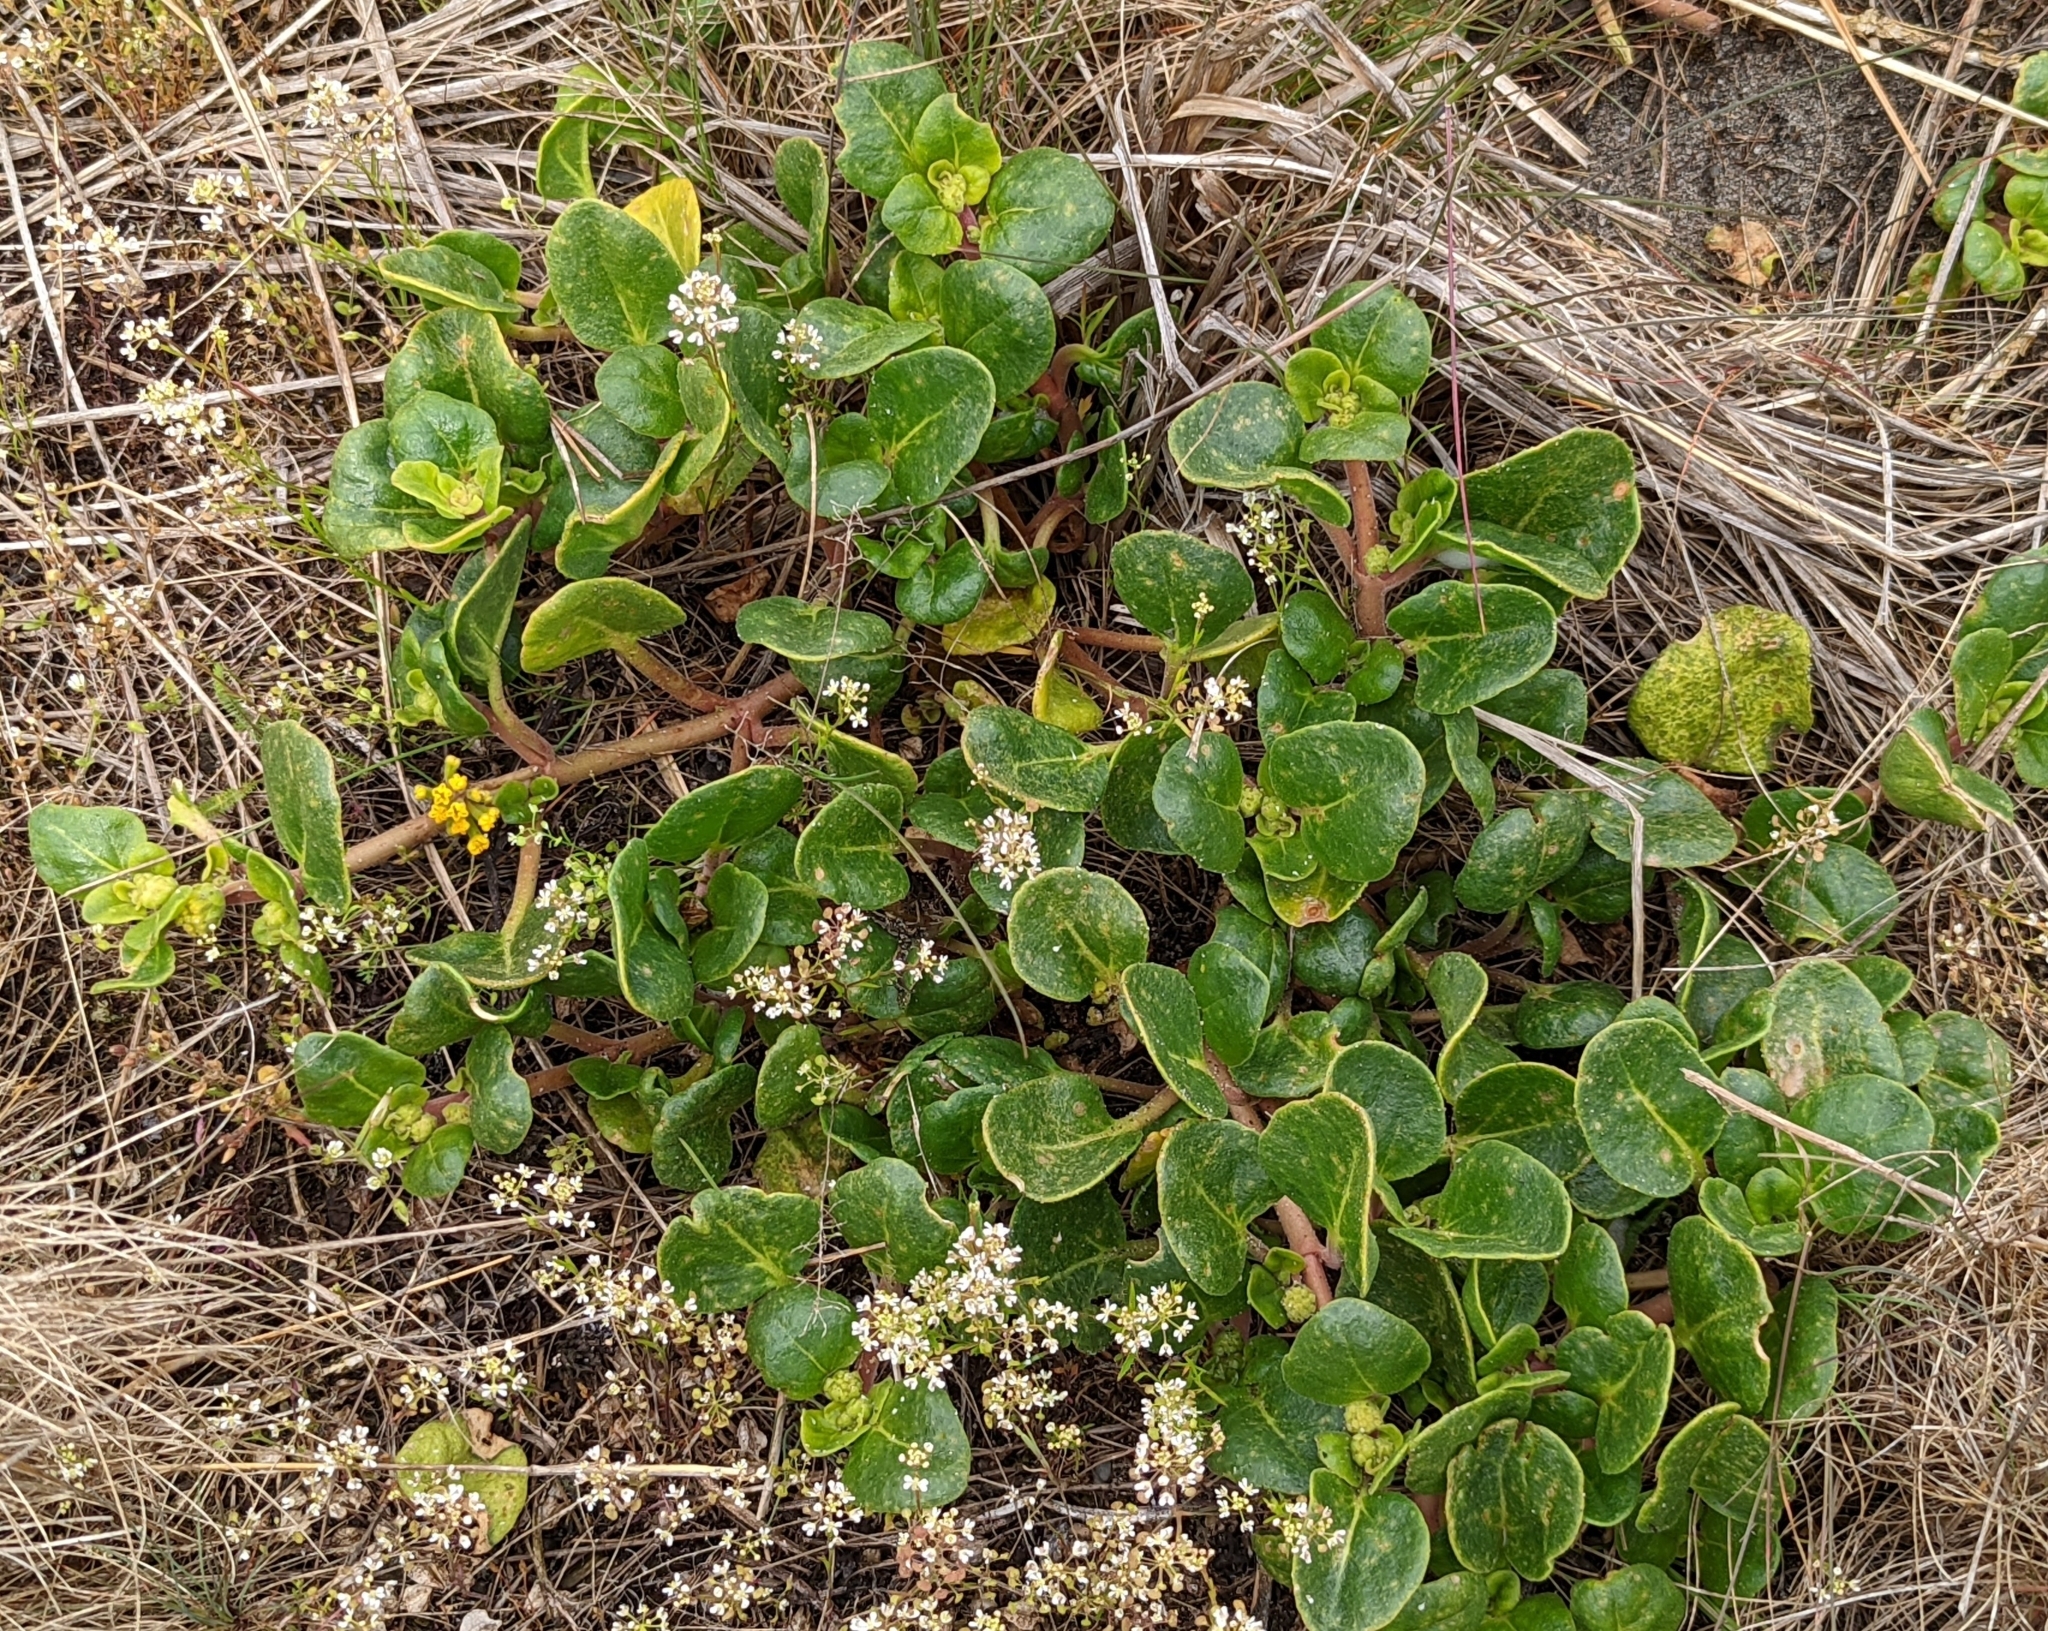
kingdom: Plantae
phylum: Tracheophyta
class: Magnoliopsida
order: Caryophyllales
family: Nyctaginaceae
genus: Abronia
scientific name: Abronia latifolia
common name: Yellow sand-verbena
